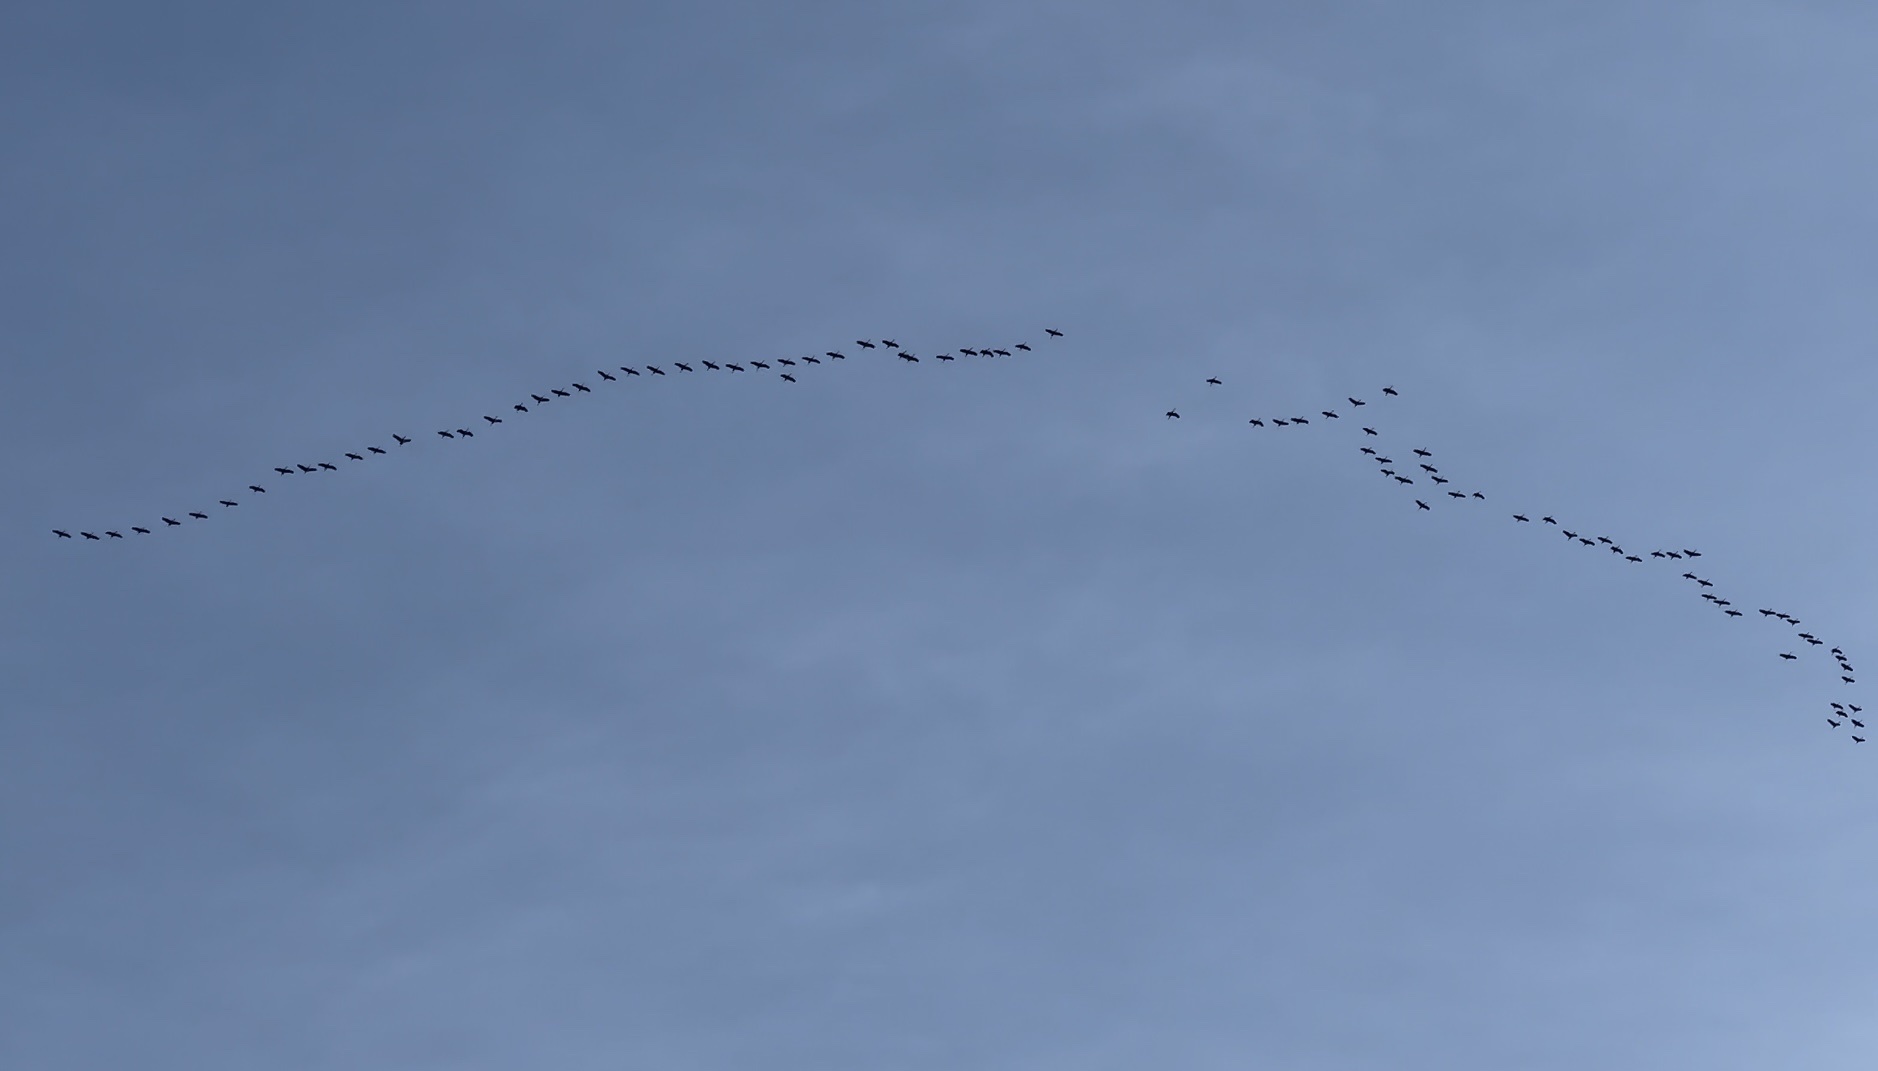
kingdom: Animalia
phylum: Chordata
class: Aves
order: Gruiformes
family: Gruidae
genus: Grus
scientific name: Grus canadensis
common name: Sandhill crane
